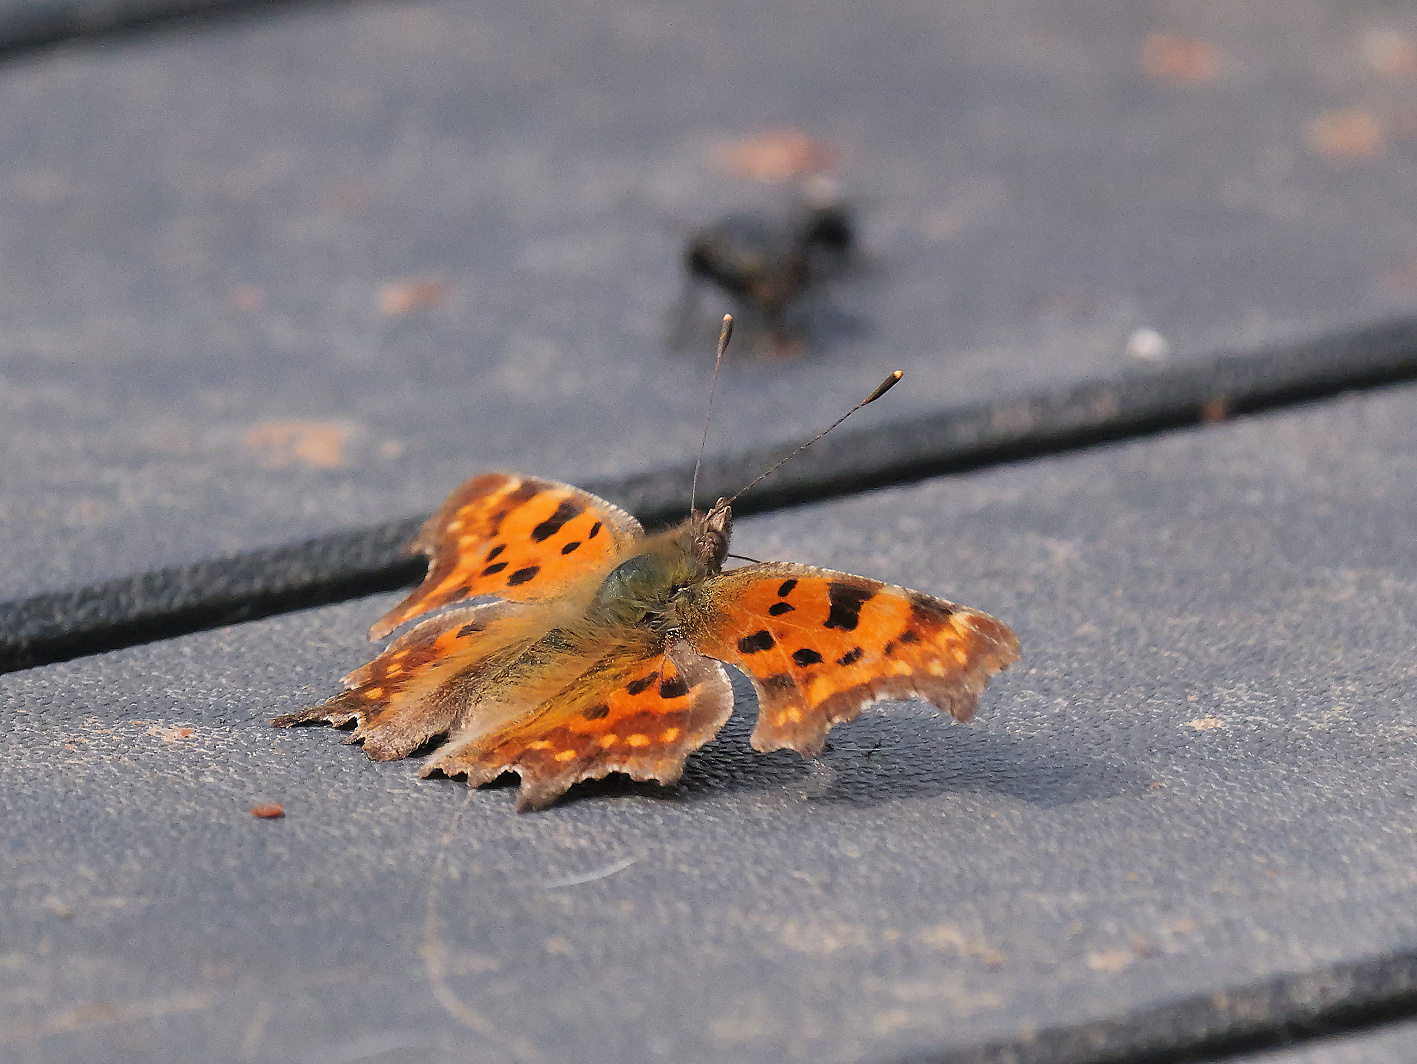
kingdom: Animalia
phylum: Arthropoda
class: Insecta
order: Lepidoptera
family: Nymphalidae
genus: Polygonia
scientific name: Polygonia c-album
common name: Comma
